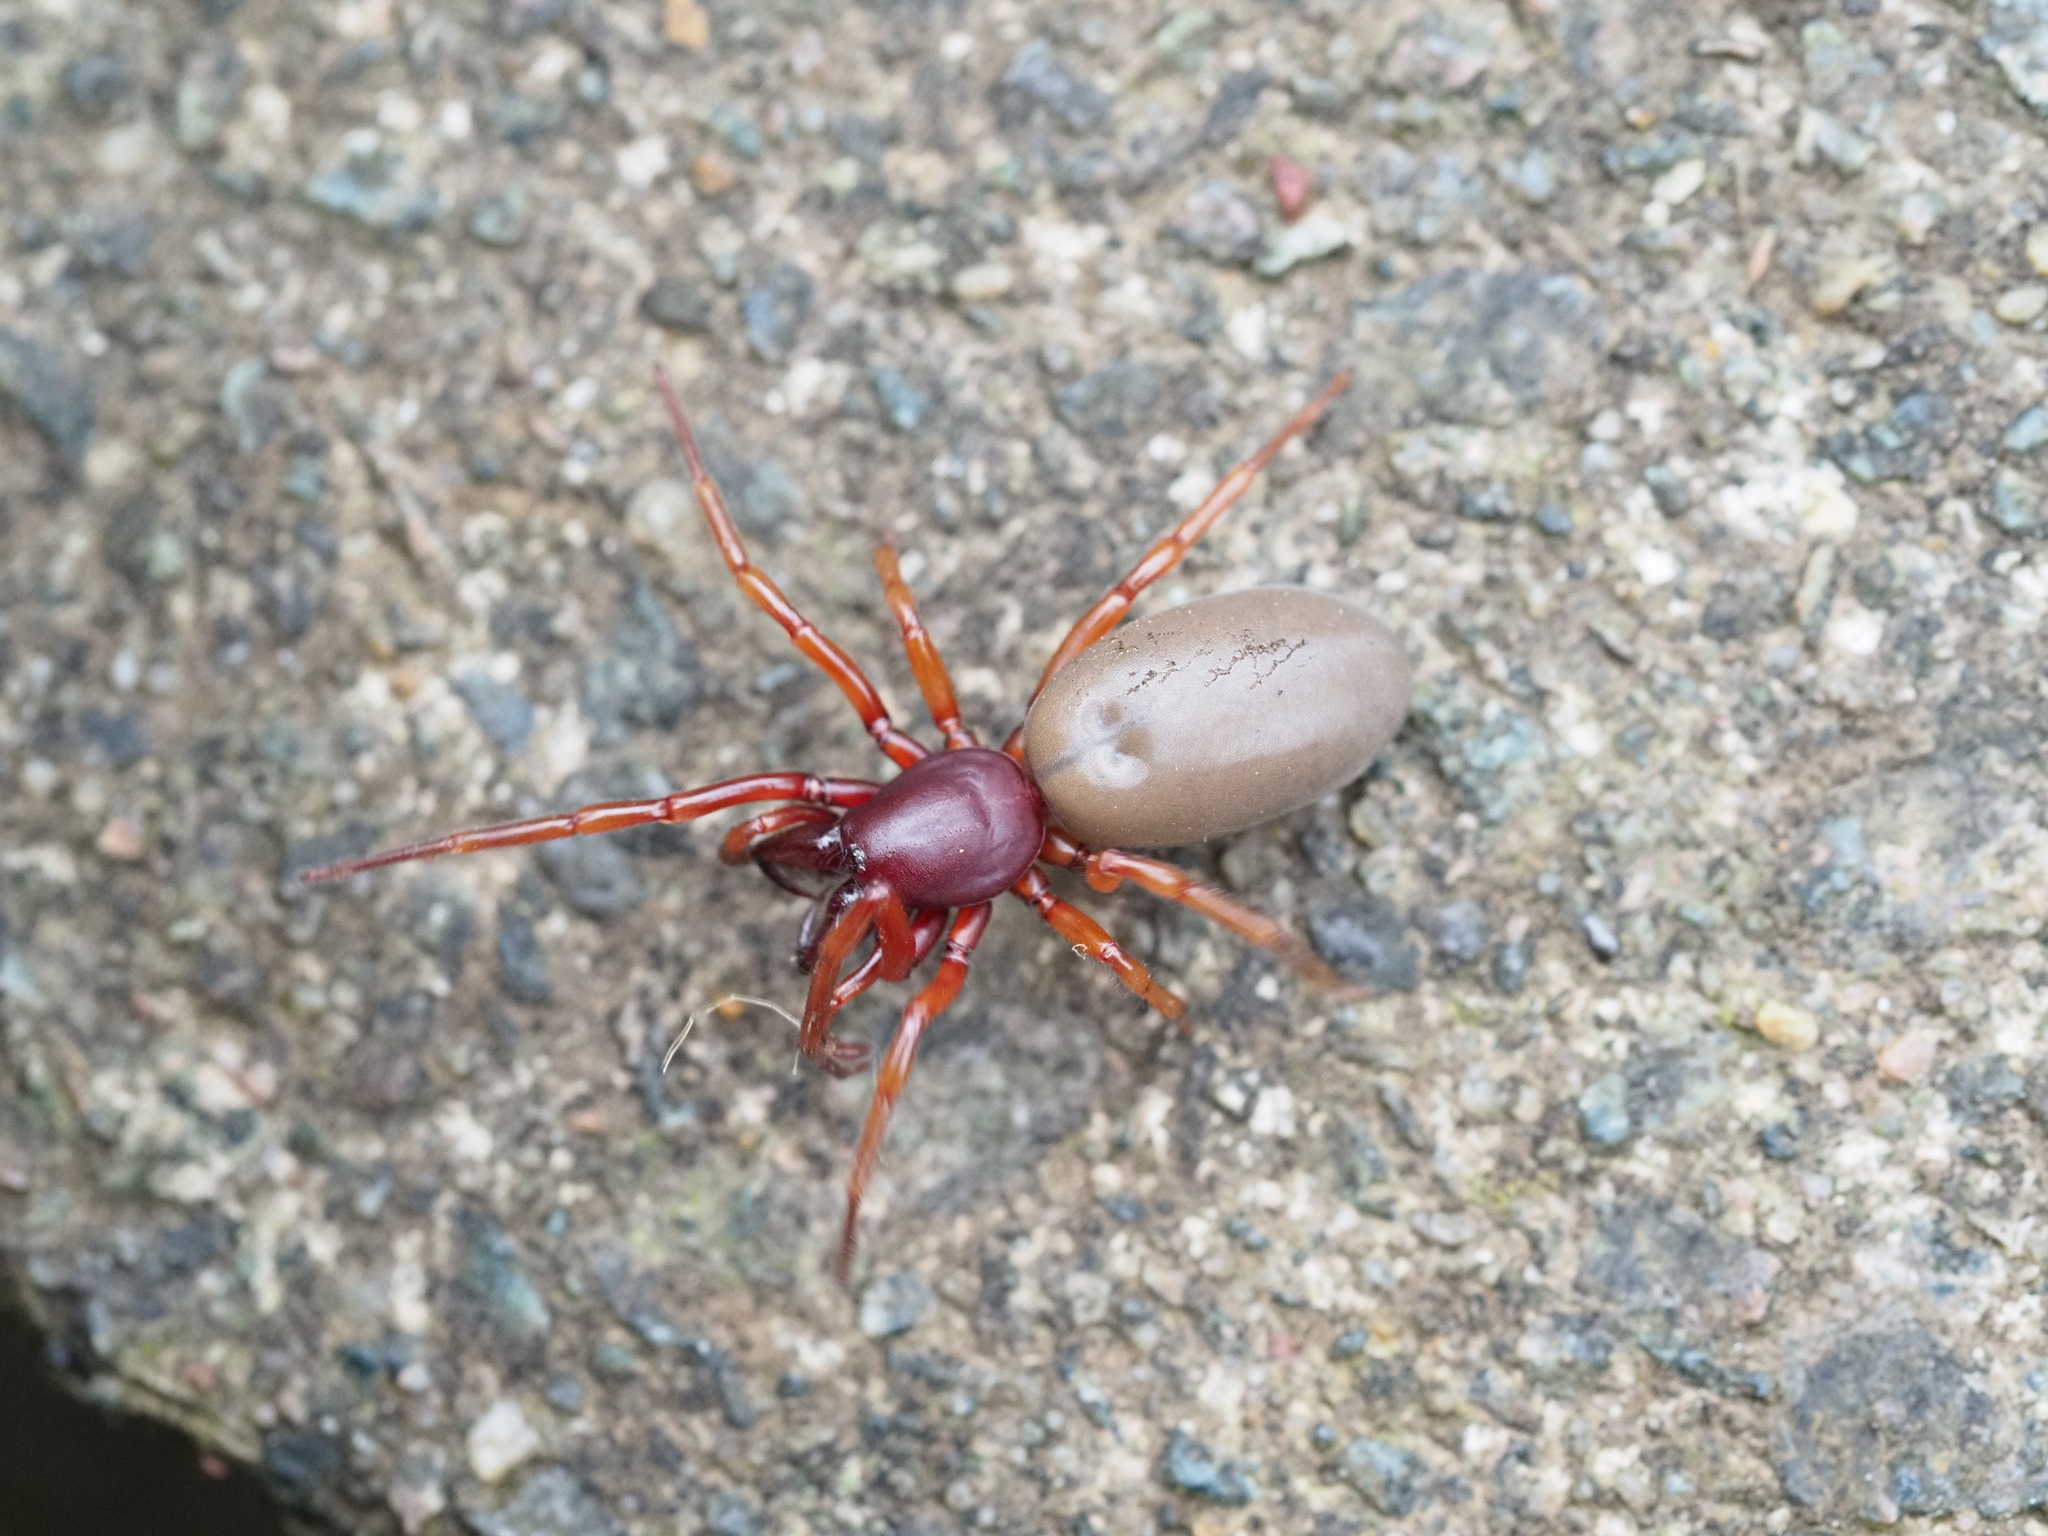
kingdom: Animalia
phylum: Arthropoda
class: Arachnida
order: Araneae
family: Dysderidae
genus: Dysdera
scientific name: Dysdera crocata
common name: Woodlouse spider
